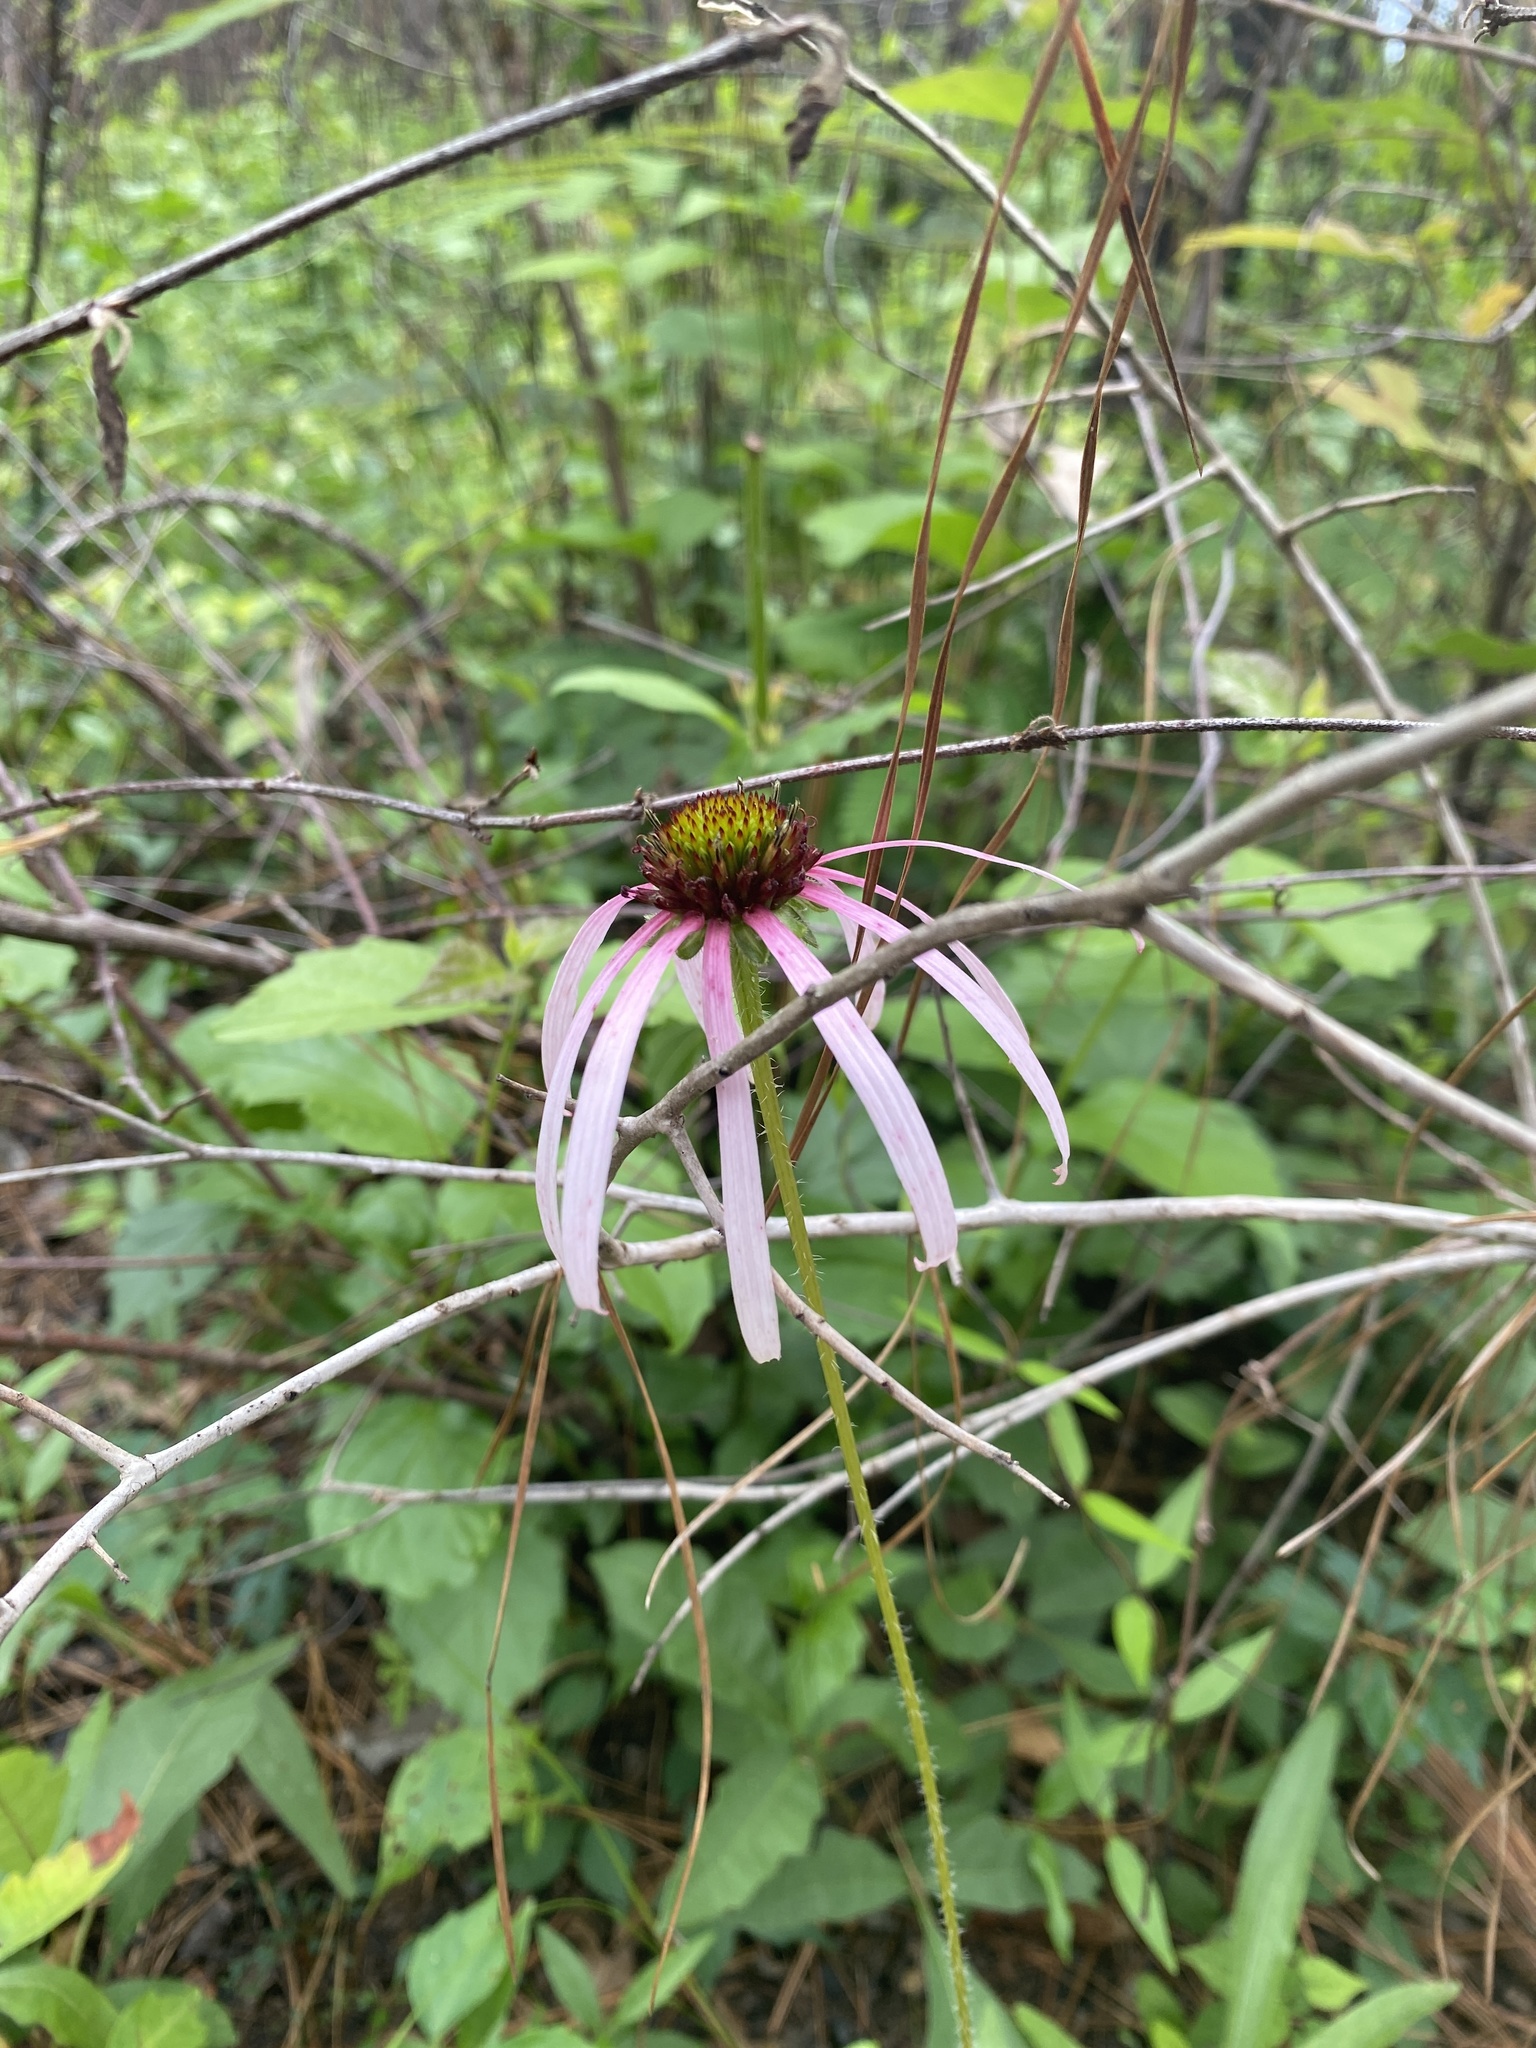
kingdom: Plantae
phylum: Tracheophyta
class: Magnoliopsida
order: Asterales
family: Asteraceae
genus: Echinacea
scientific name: Echinacea sanguinea
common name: Sanguine purple-coneflower
